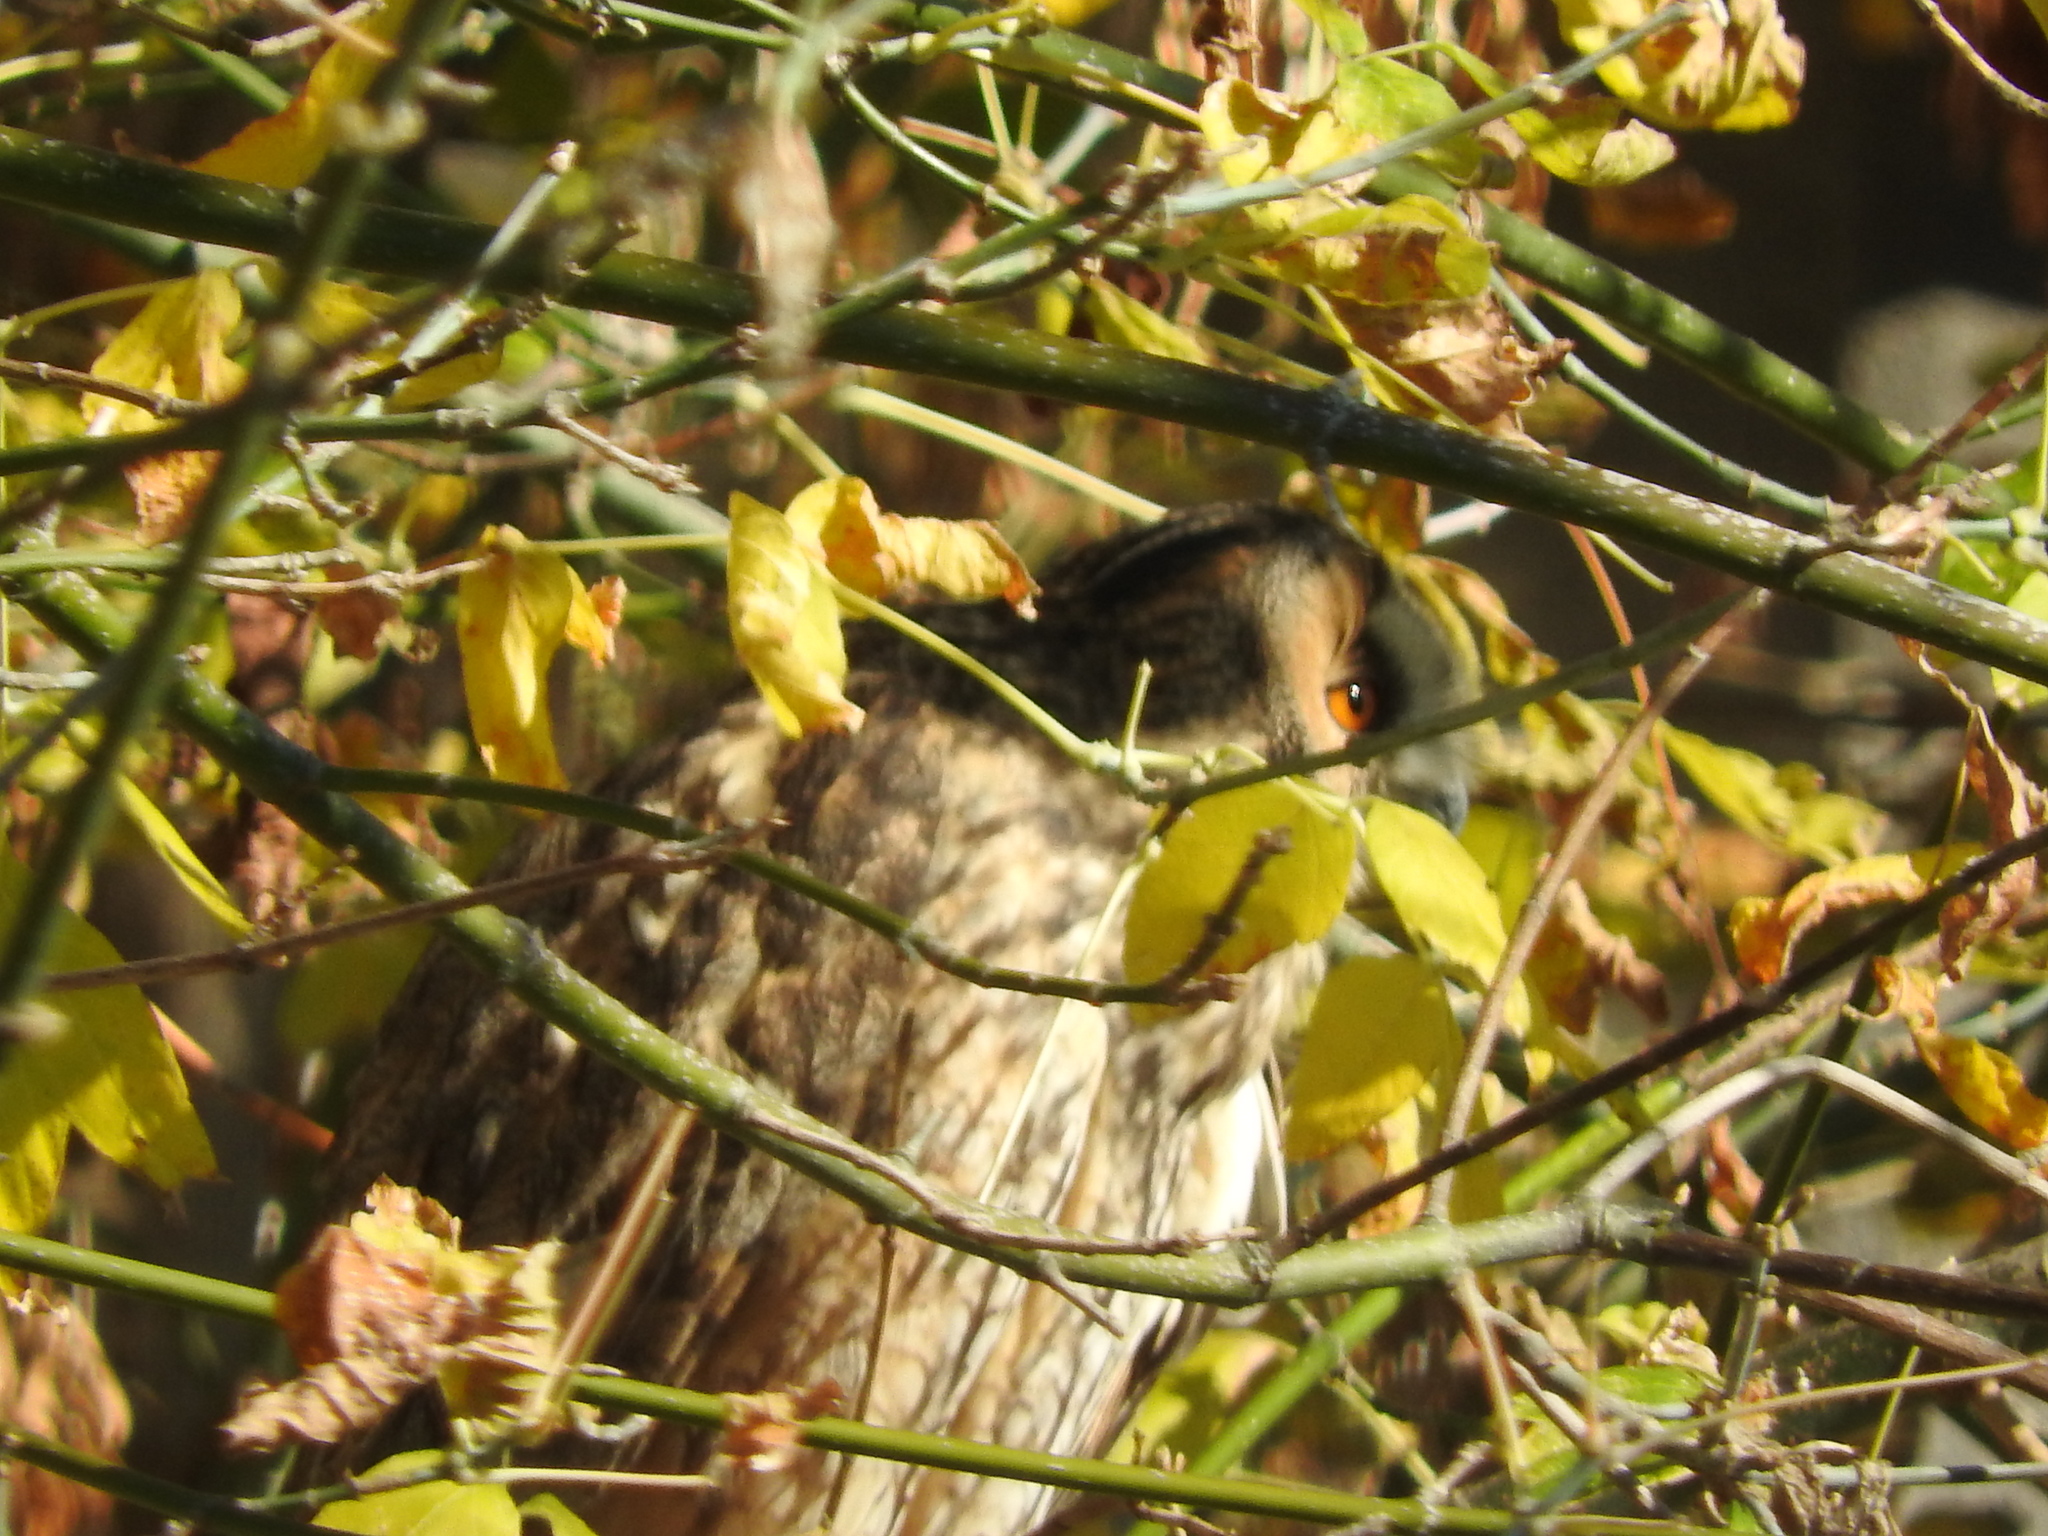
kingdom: Animalia
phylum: Chordata
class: Aves
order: Strigiformes
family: Strigidae
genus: Asio
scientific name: Asio otus
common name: Long-eared owl
